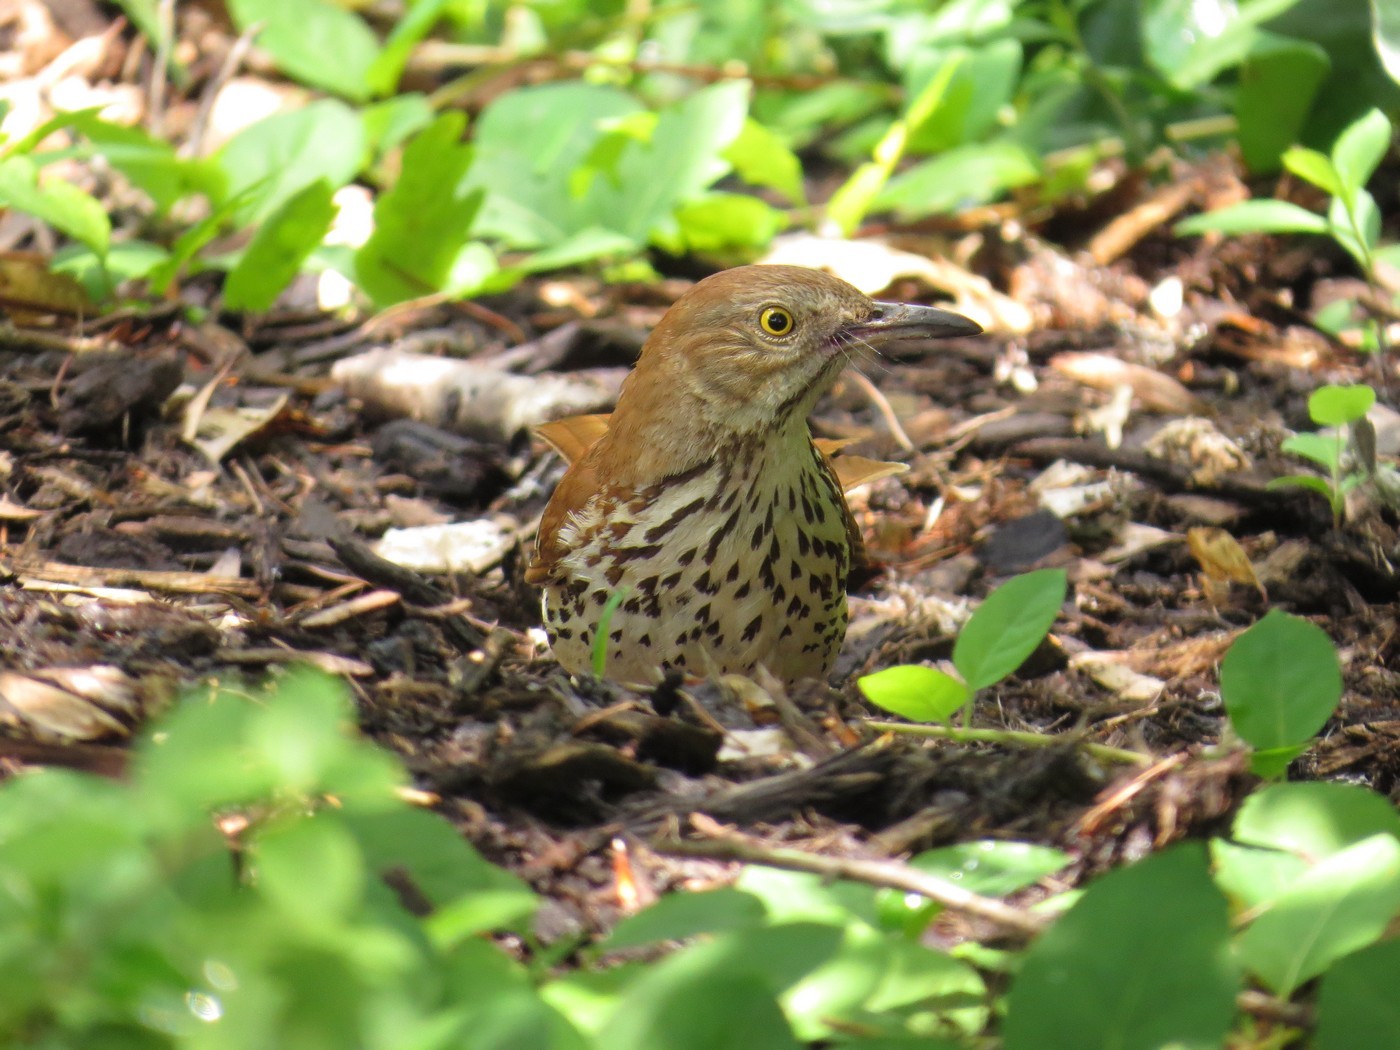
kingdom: Animalia
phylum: Chordata
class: Aves
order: Passeriformes
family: Mimidae
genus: Toxostoma
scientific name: Toxostoma rufum
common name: Brown thrasher
